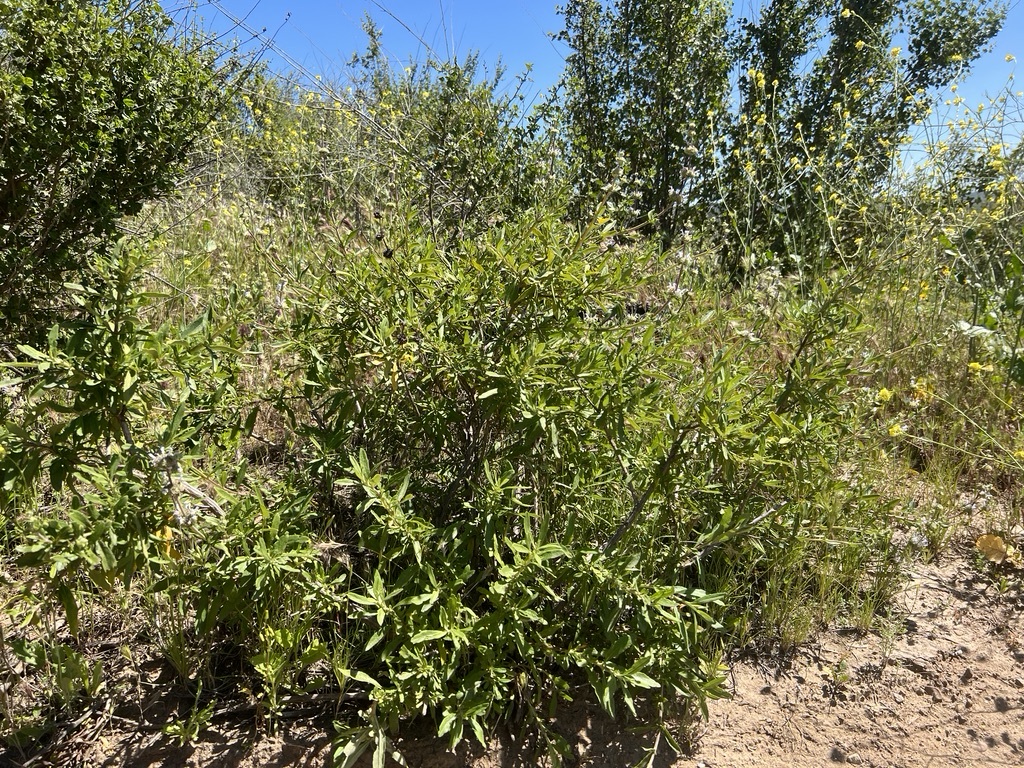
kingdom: Plantae
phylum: Tracheophyta
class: Magnoliopsida
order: Lamiales
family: Lamiaceae
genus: Salvia
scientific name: Salvia mellifera
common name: Black sage
